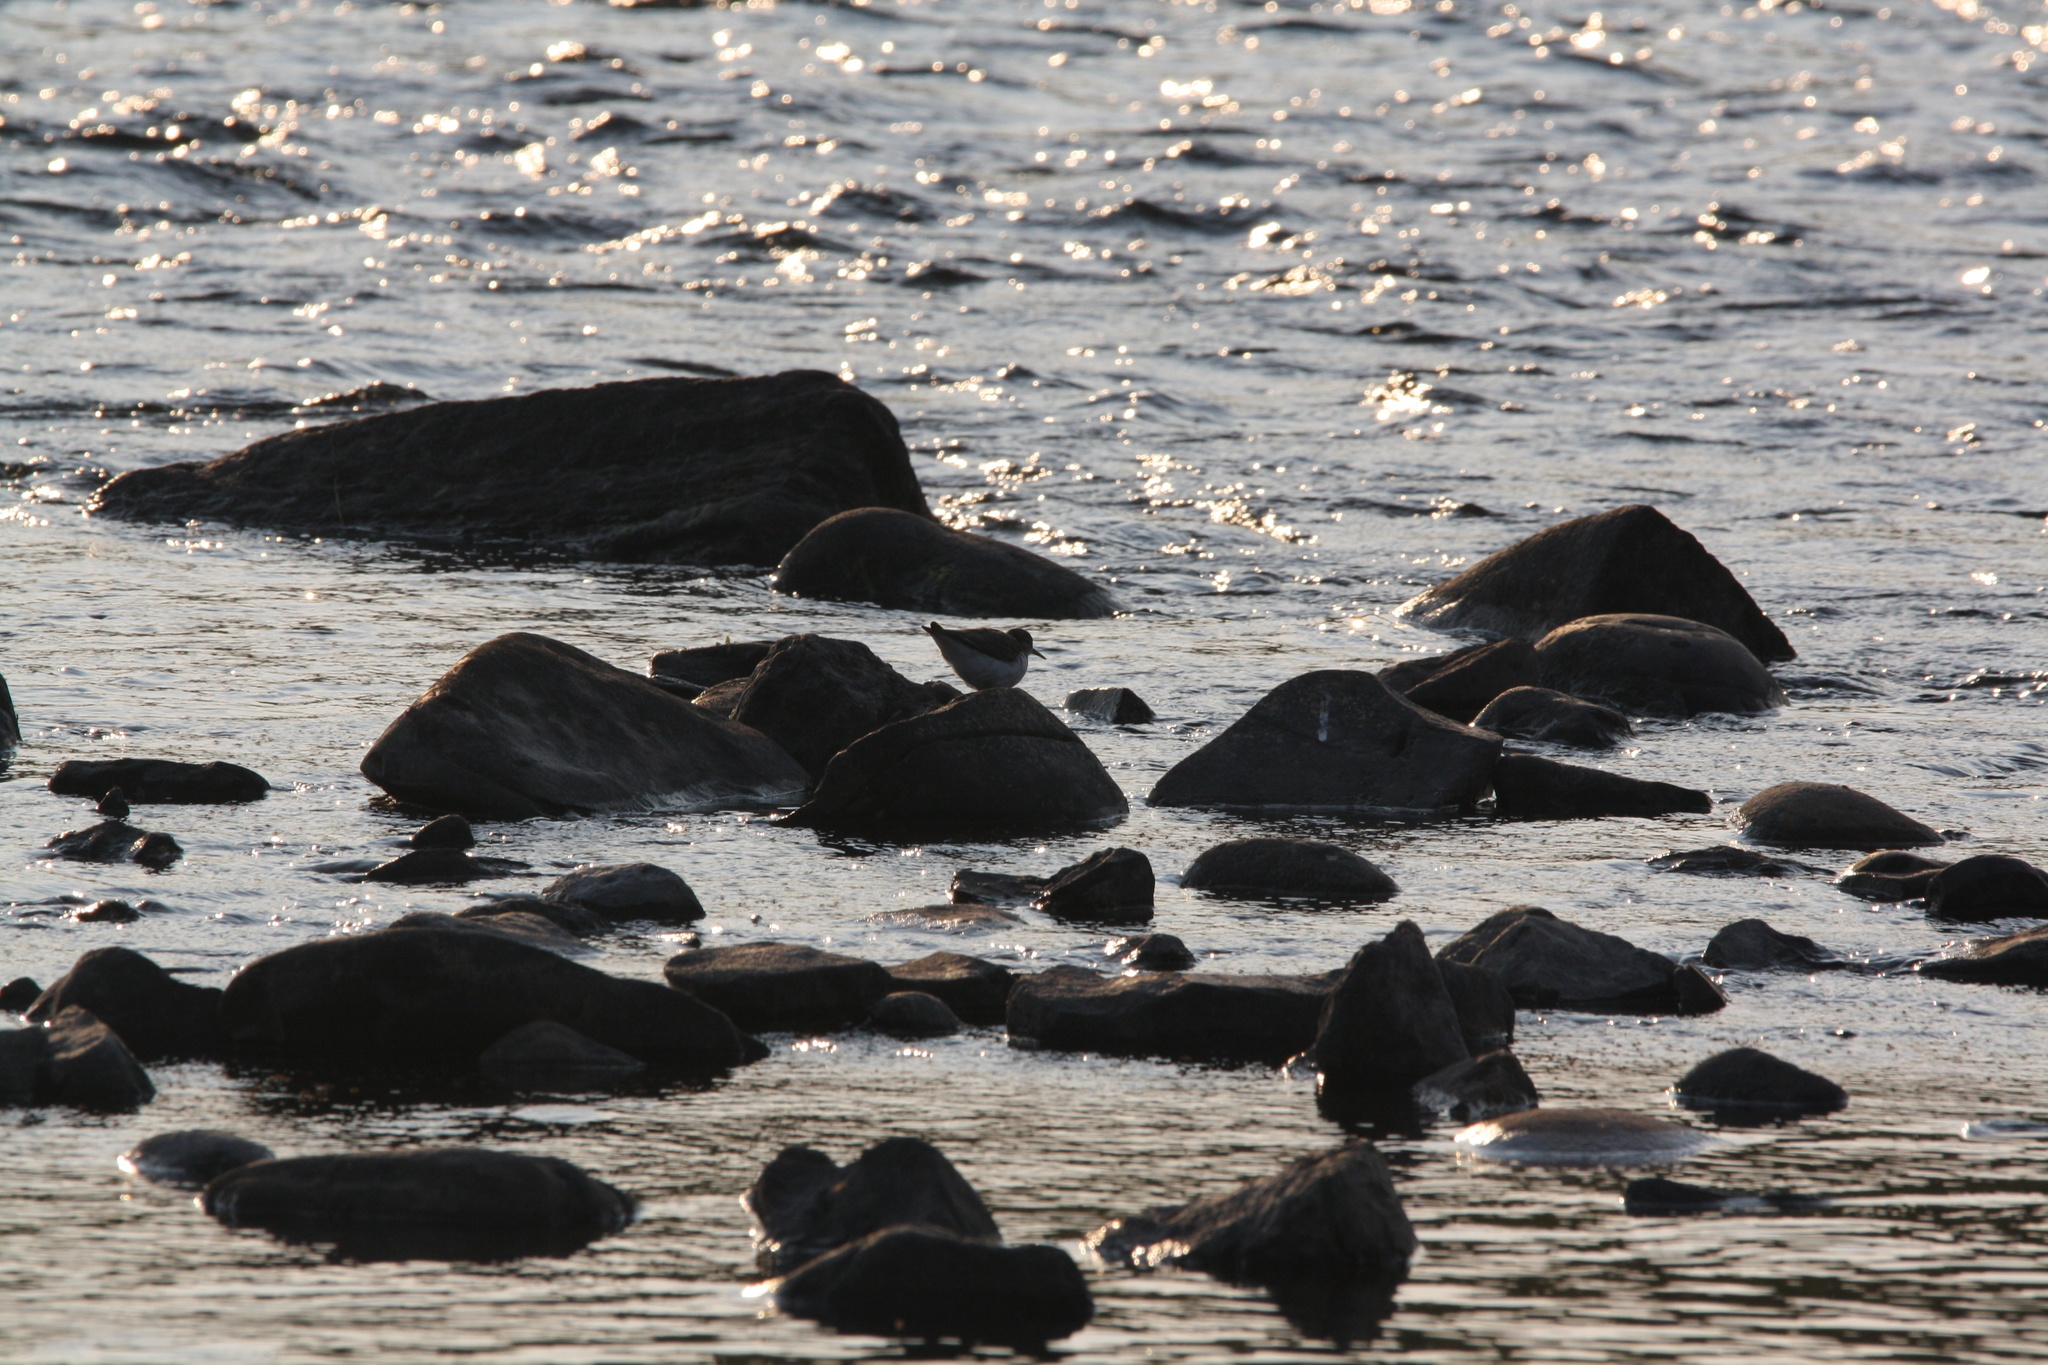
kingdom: Animalia
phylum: Chordata
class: Aves
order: Charadriiformes
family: Scolopacidae
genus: Actitis
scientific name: Actitis macularius
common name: Spotted sandpiper
